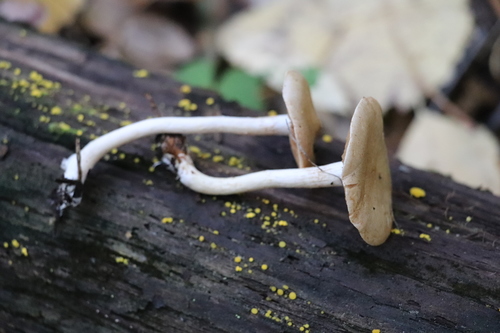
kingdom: Fungi
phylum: Basidiomycota
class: Agaricomycetes
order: Agaricales
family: Cortinariaceae
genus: Cortinarius
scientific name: Cortinarius anomalus
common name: Variable webcap
